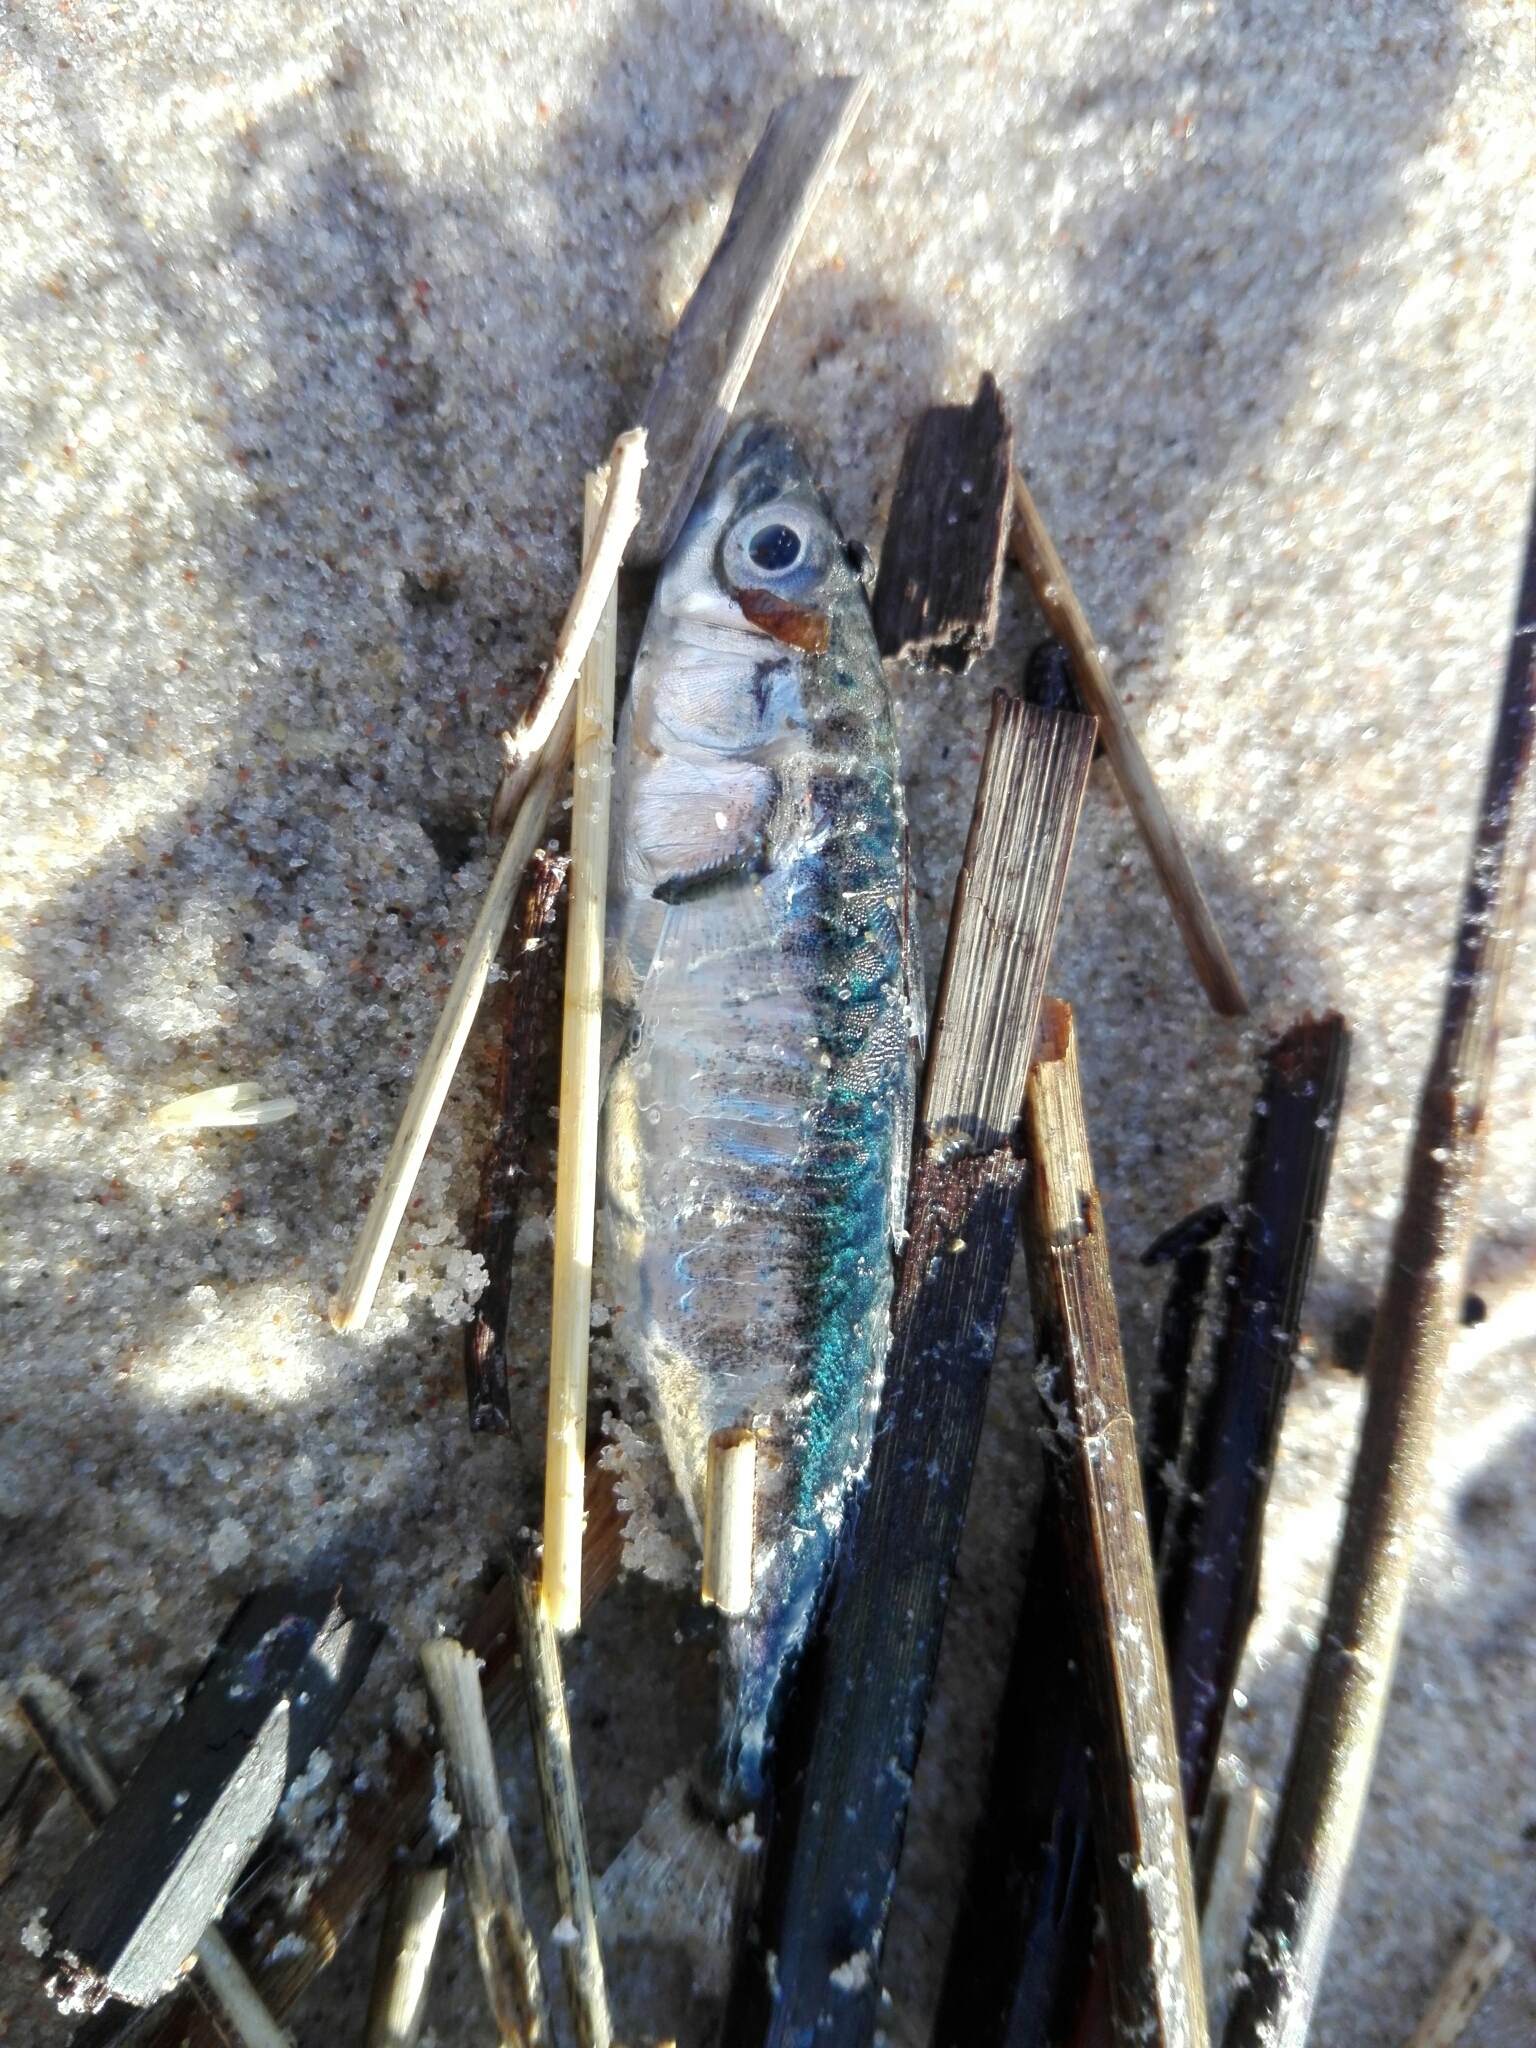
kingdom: Animalia
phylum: Chordata
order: Gasterosteiformes
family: Gasterosteidae
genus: Gasterosteus
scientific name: Gasterosteus aculeatus
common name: Three-spined stickleback
